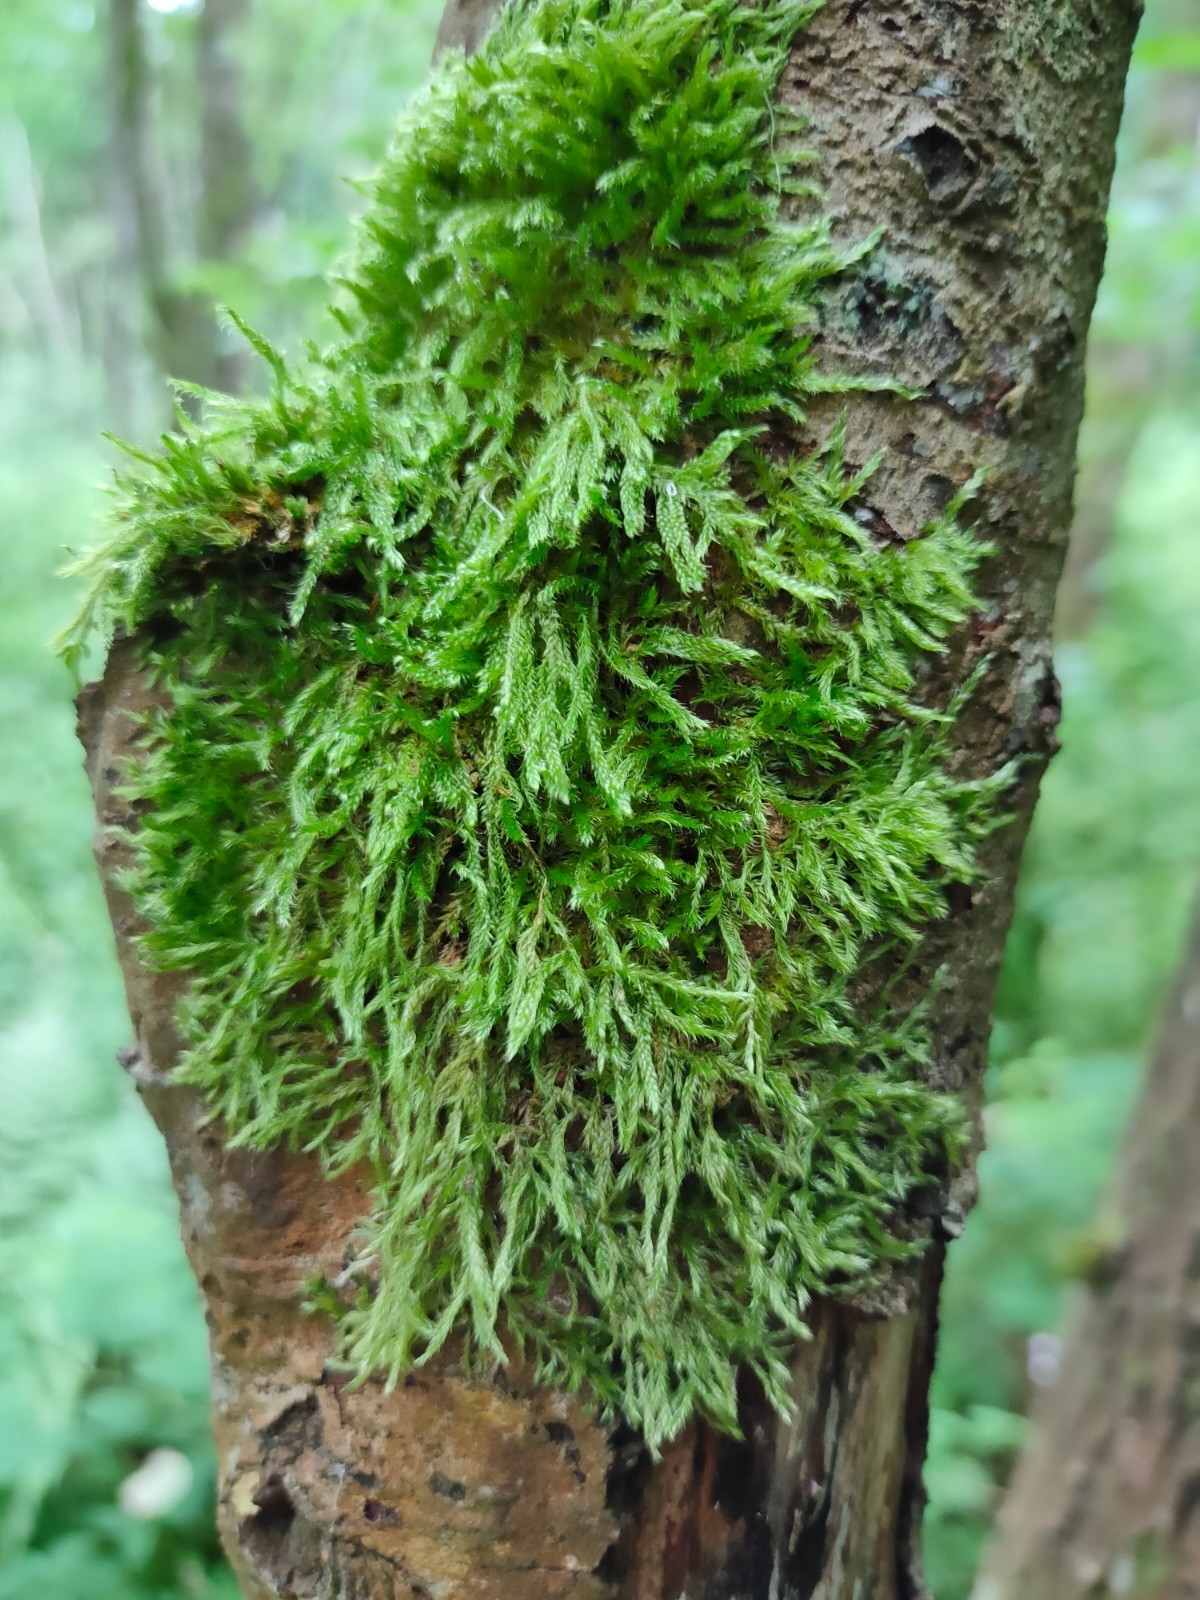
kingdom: Plantae
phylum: Bryophyta
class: Bryopsida
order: Hypnales
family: Hypnaceae
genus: Hypnum
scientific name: Hypnum resupinatum
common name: Supine plait-moss
